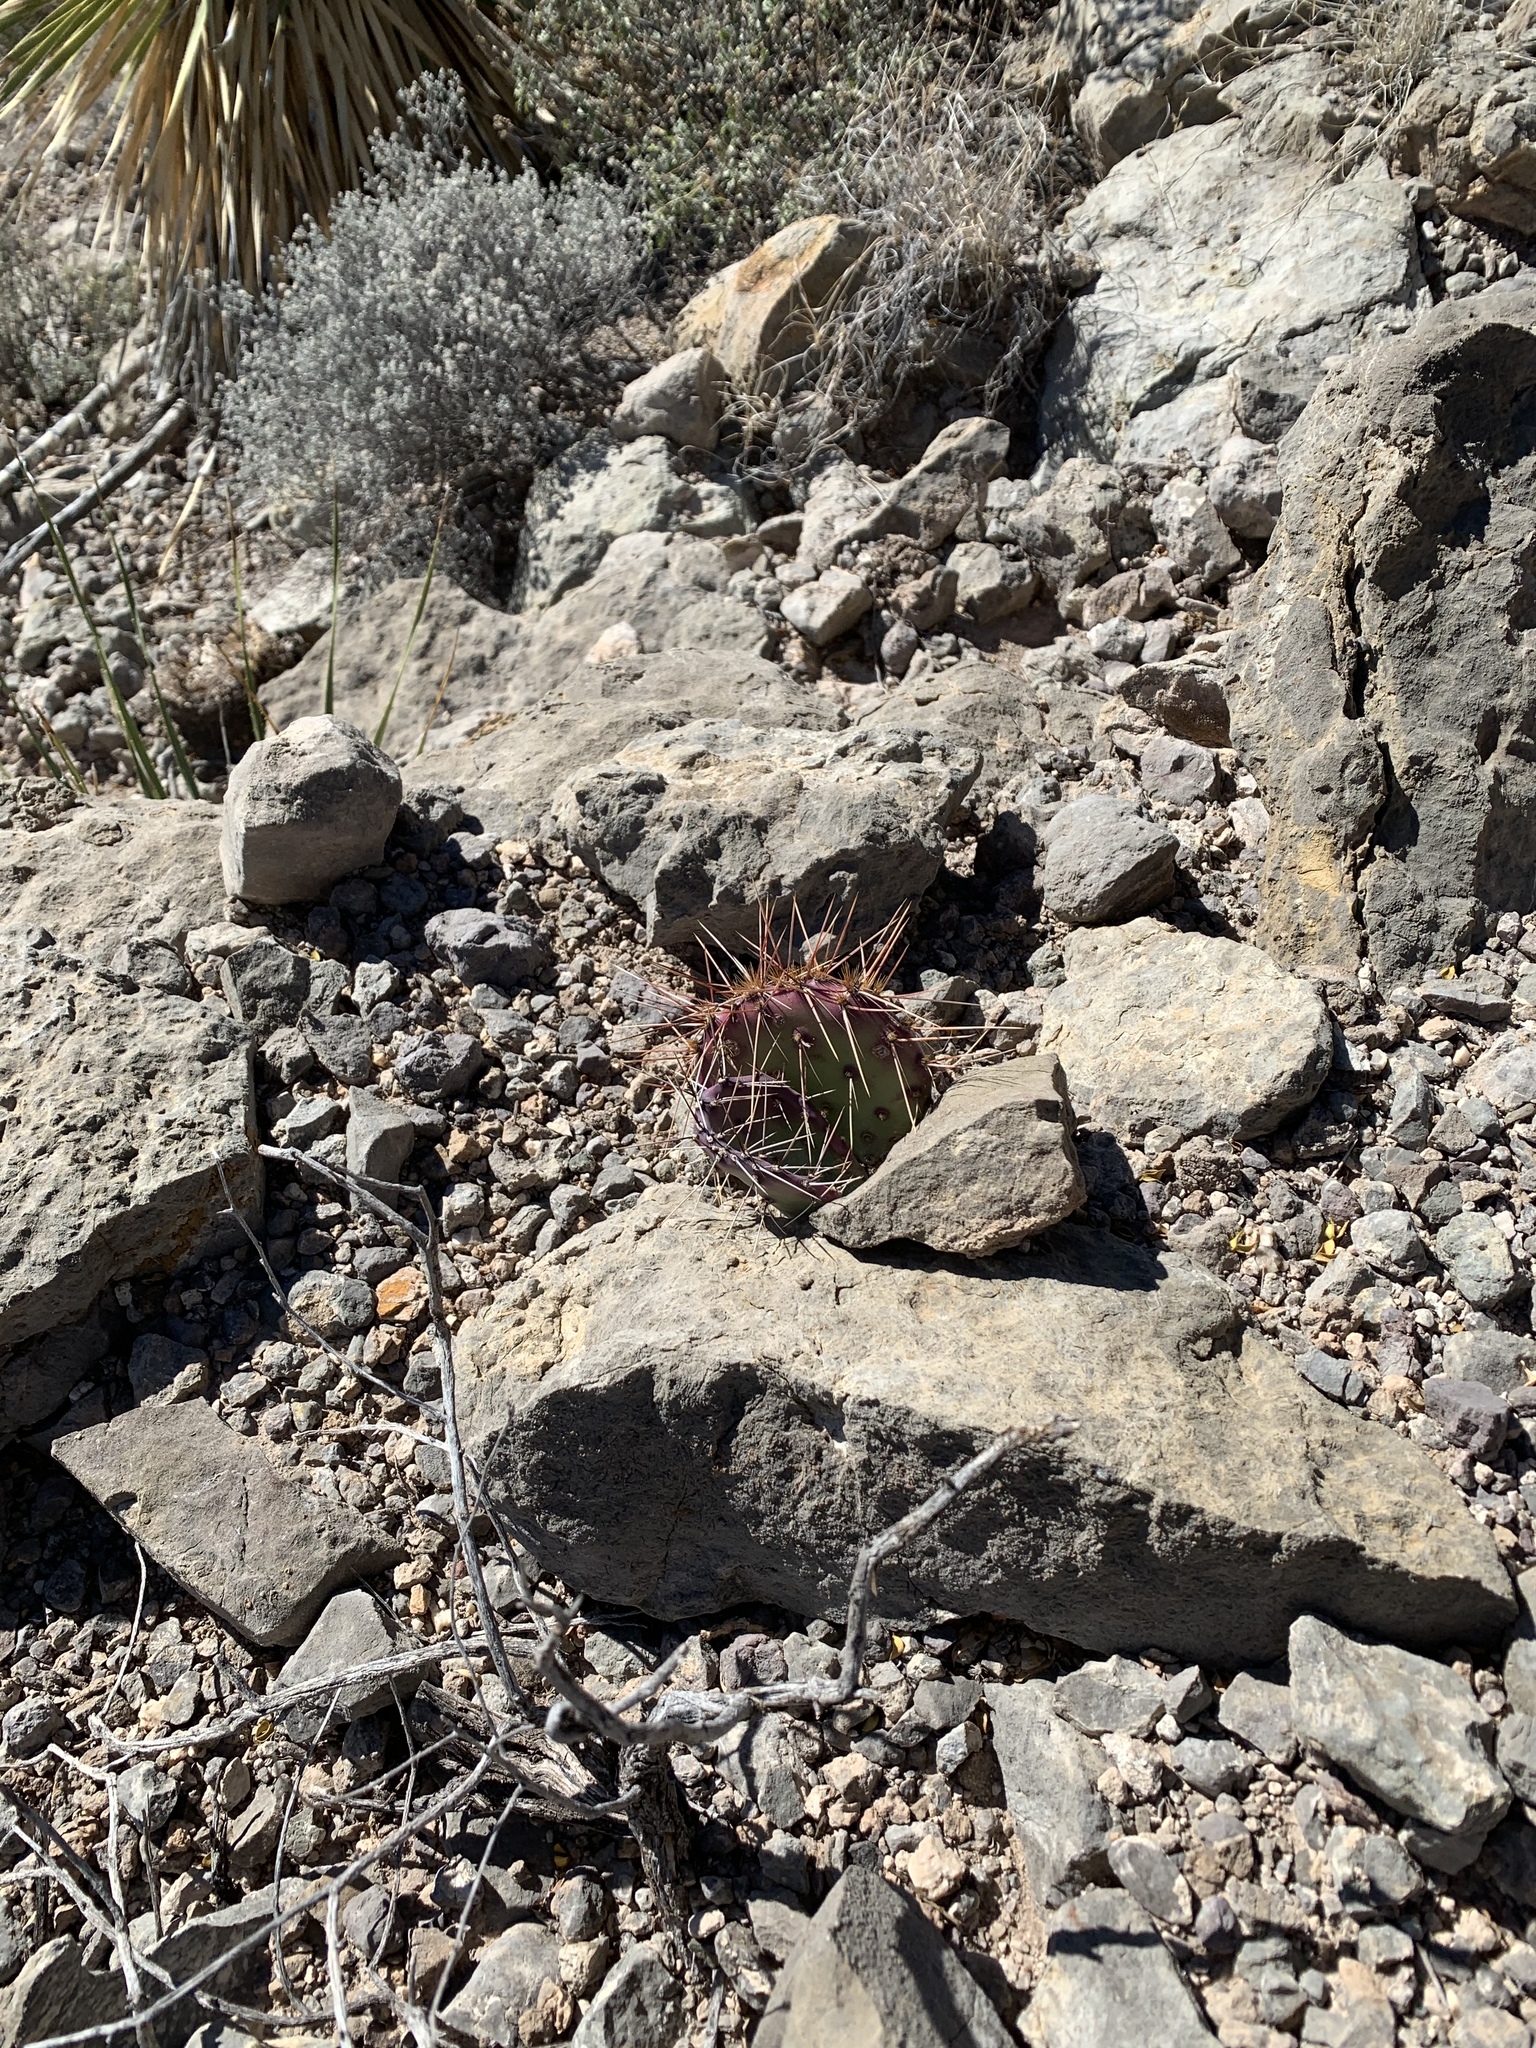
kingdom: Plantae
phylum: Tracheophyta
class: Magnoliopsida
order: Caryophyllales
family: Cactaceae
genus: Opuntia
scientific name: Opuntia macrocentra
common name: Purple prickly-pear
